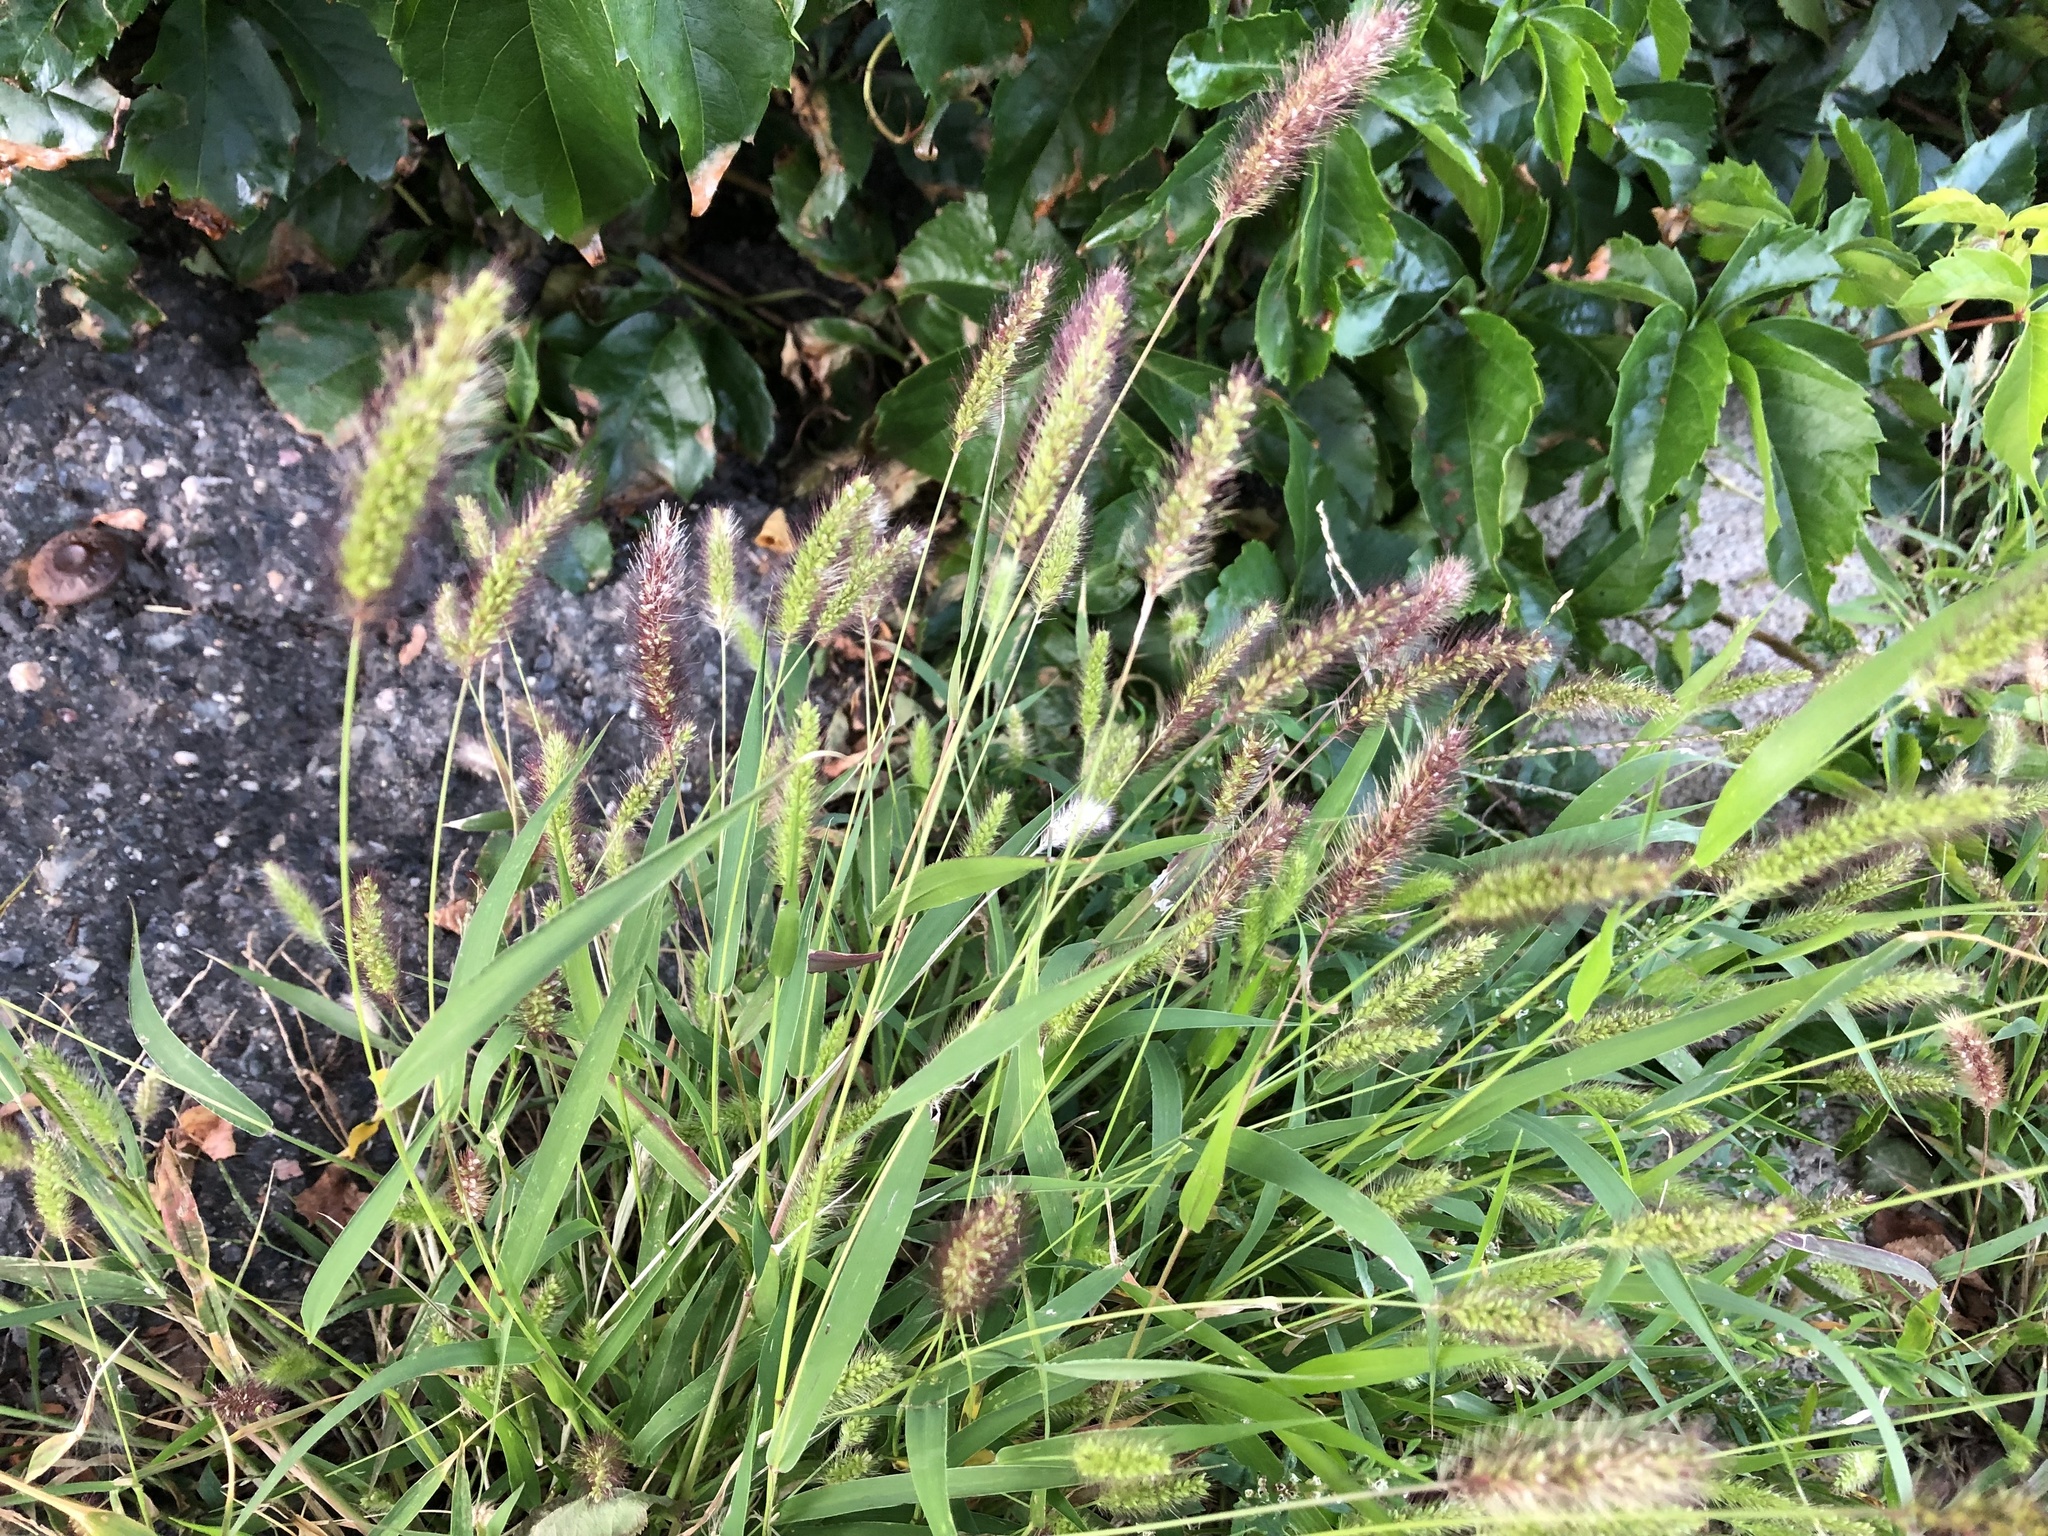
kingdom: Plantae
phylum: Tracheophyta
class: Liliopsida
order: Poales
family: Poaceae
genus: Setaria
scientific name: Setaria viridis
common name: Green bristlegrass
